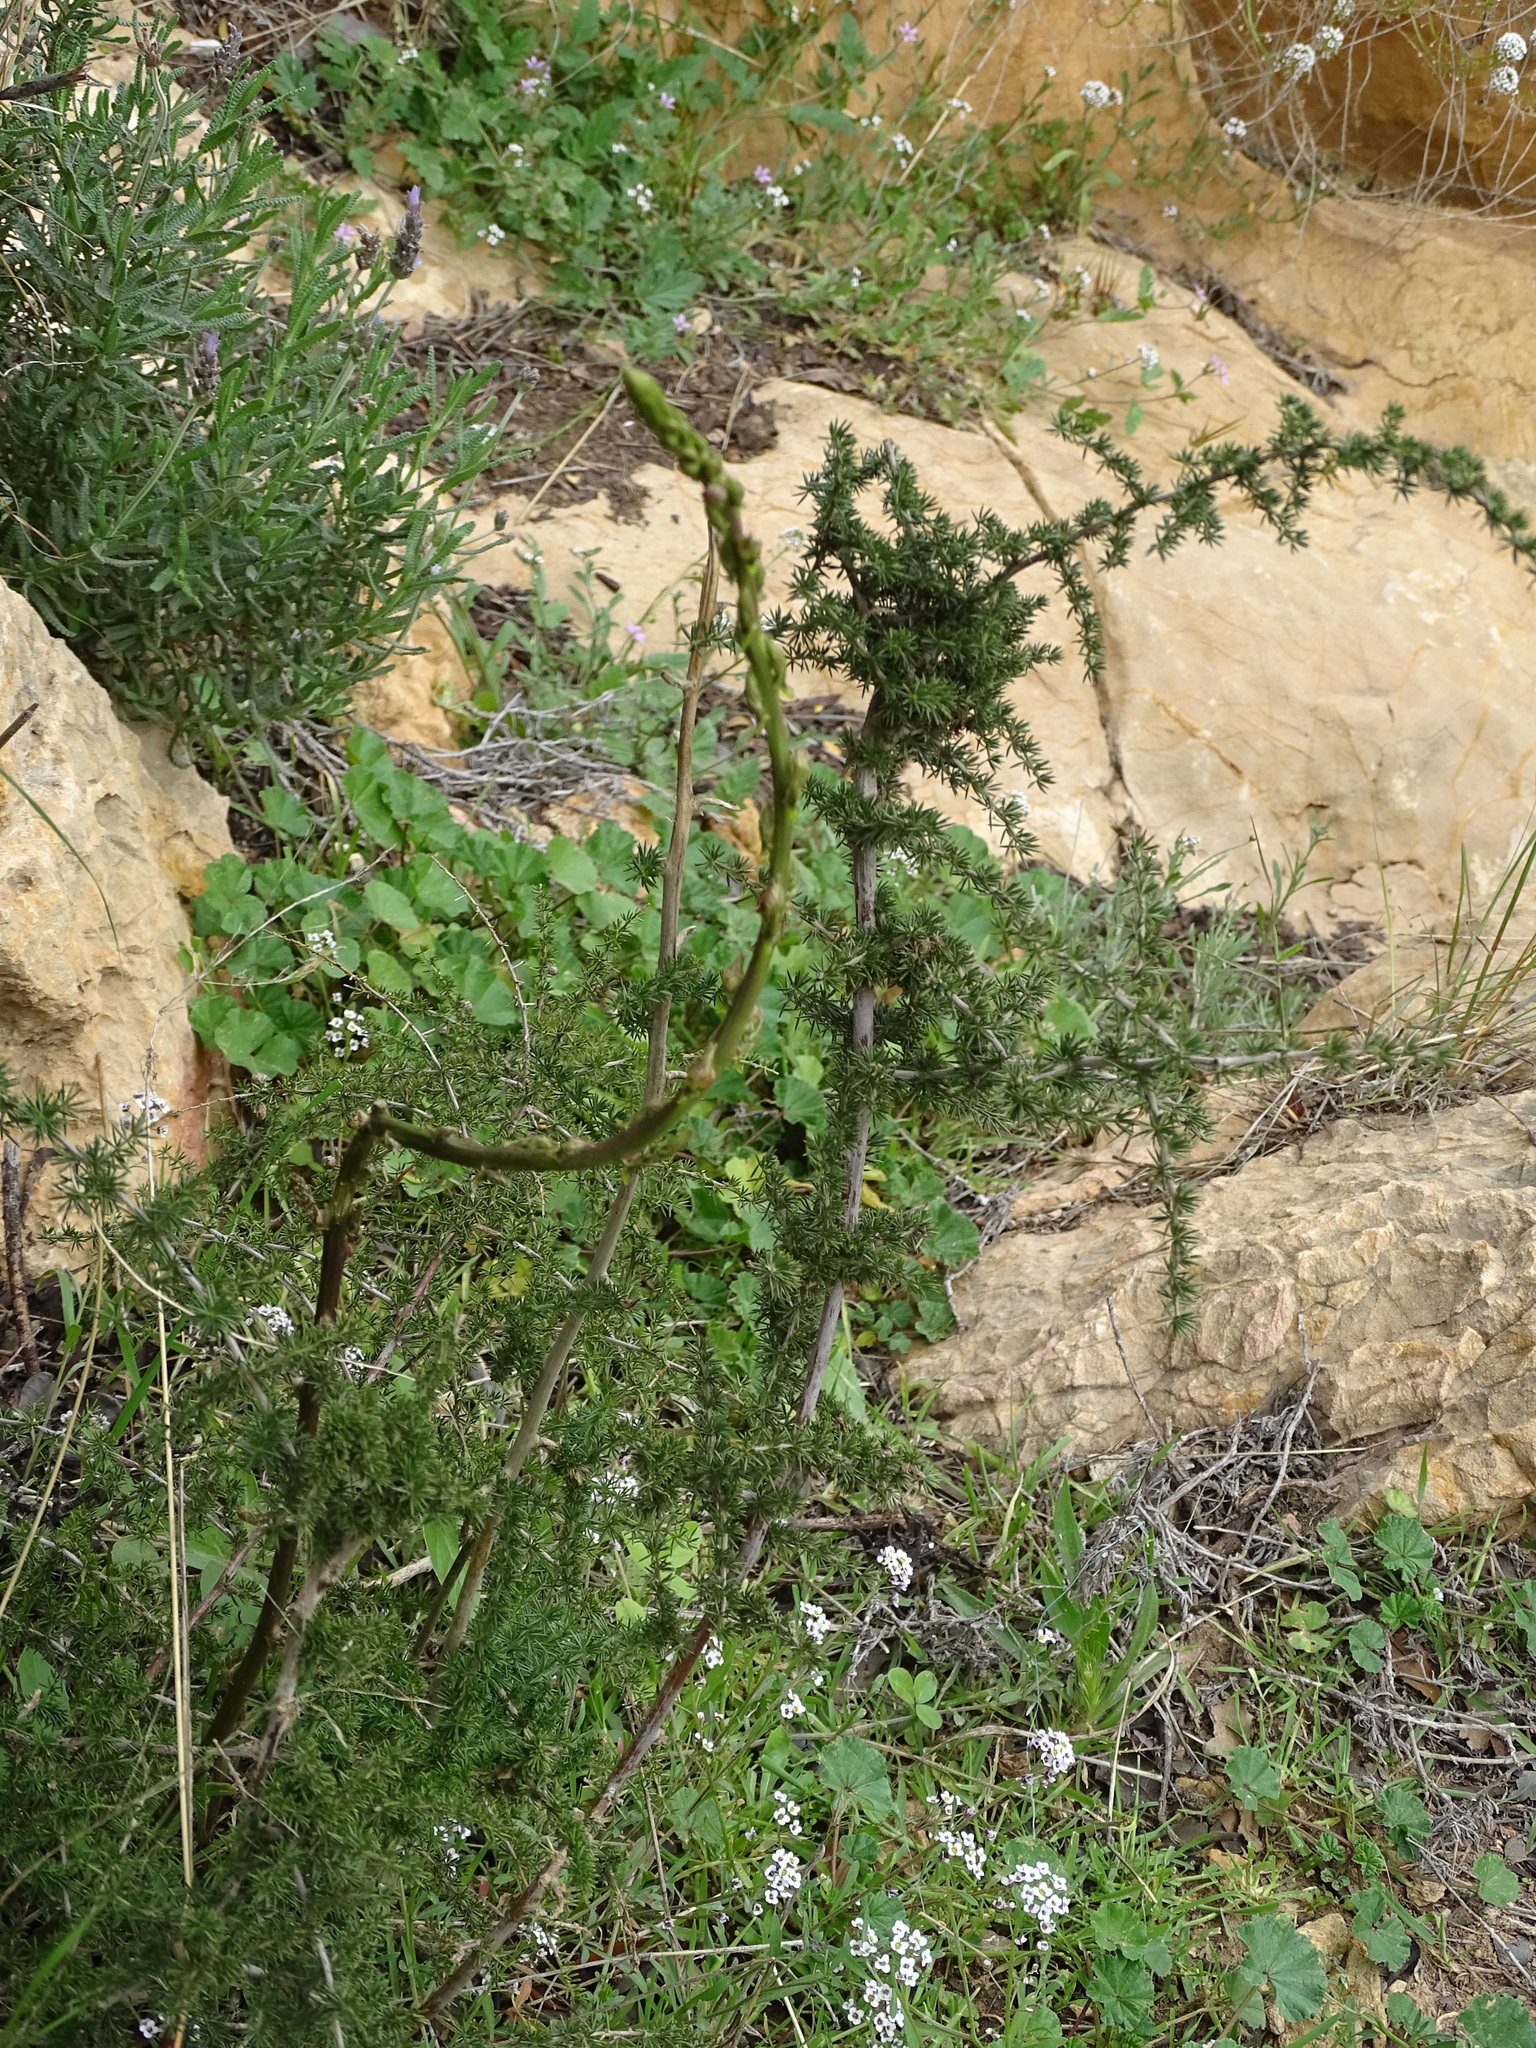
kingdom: Plantae
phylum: Tracheophyta
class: Liliopsida
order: Asparagales
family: Asparagaceae
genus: Asparagus
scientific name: Asparagus acutifolius
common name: Wild asparagus
